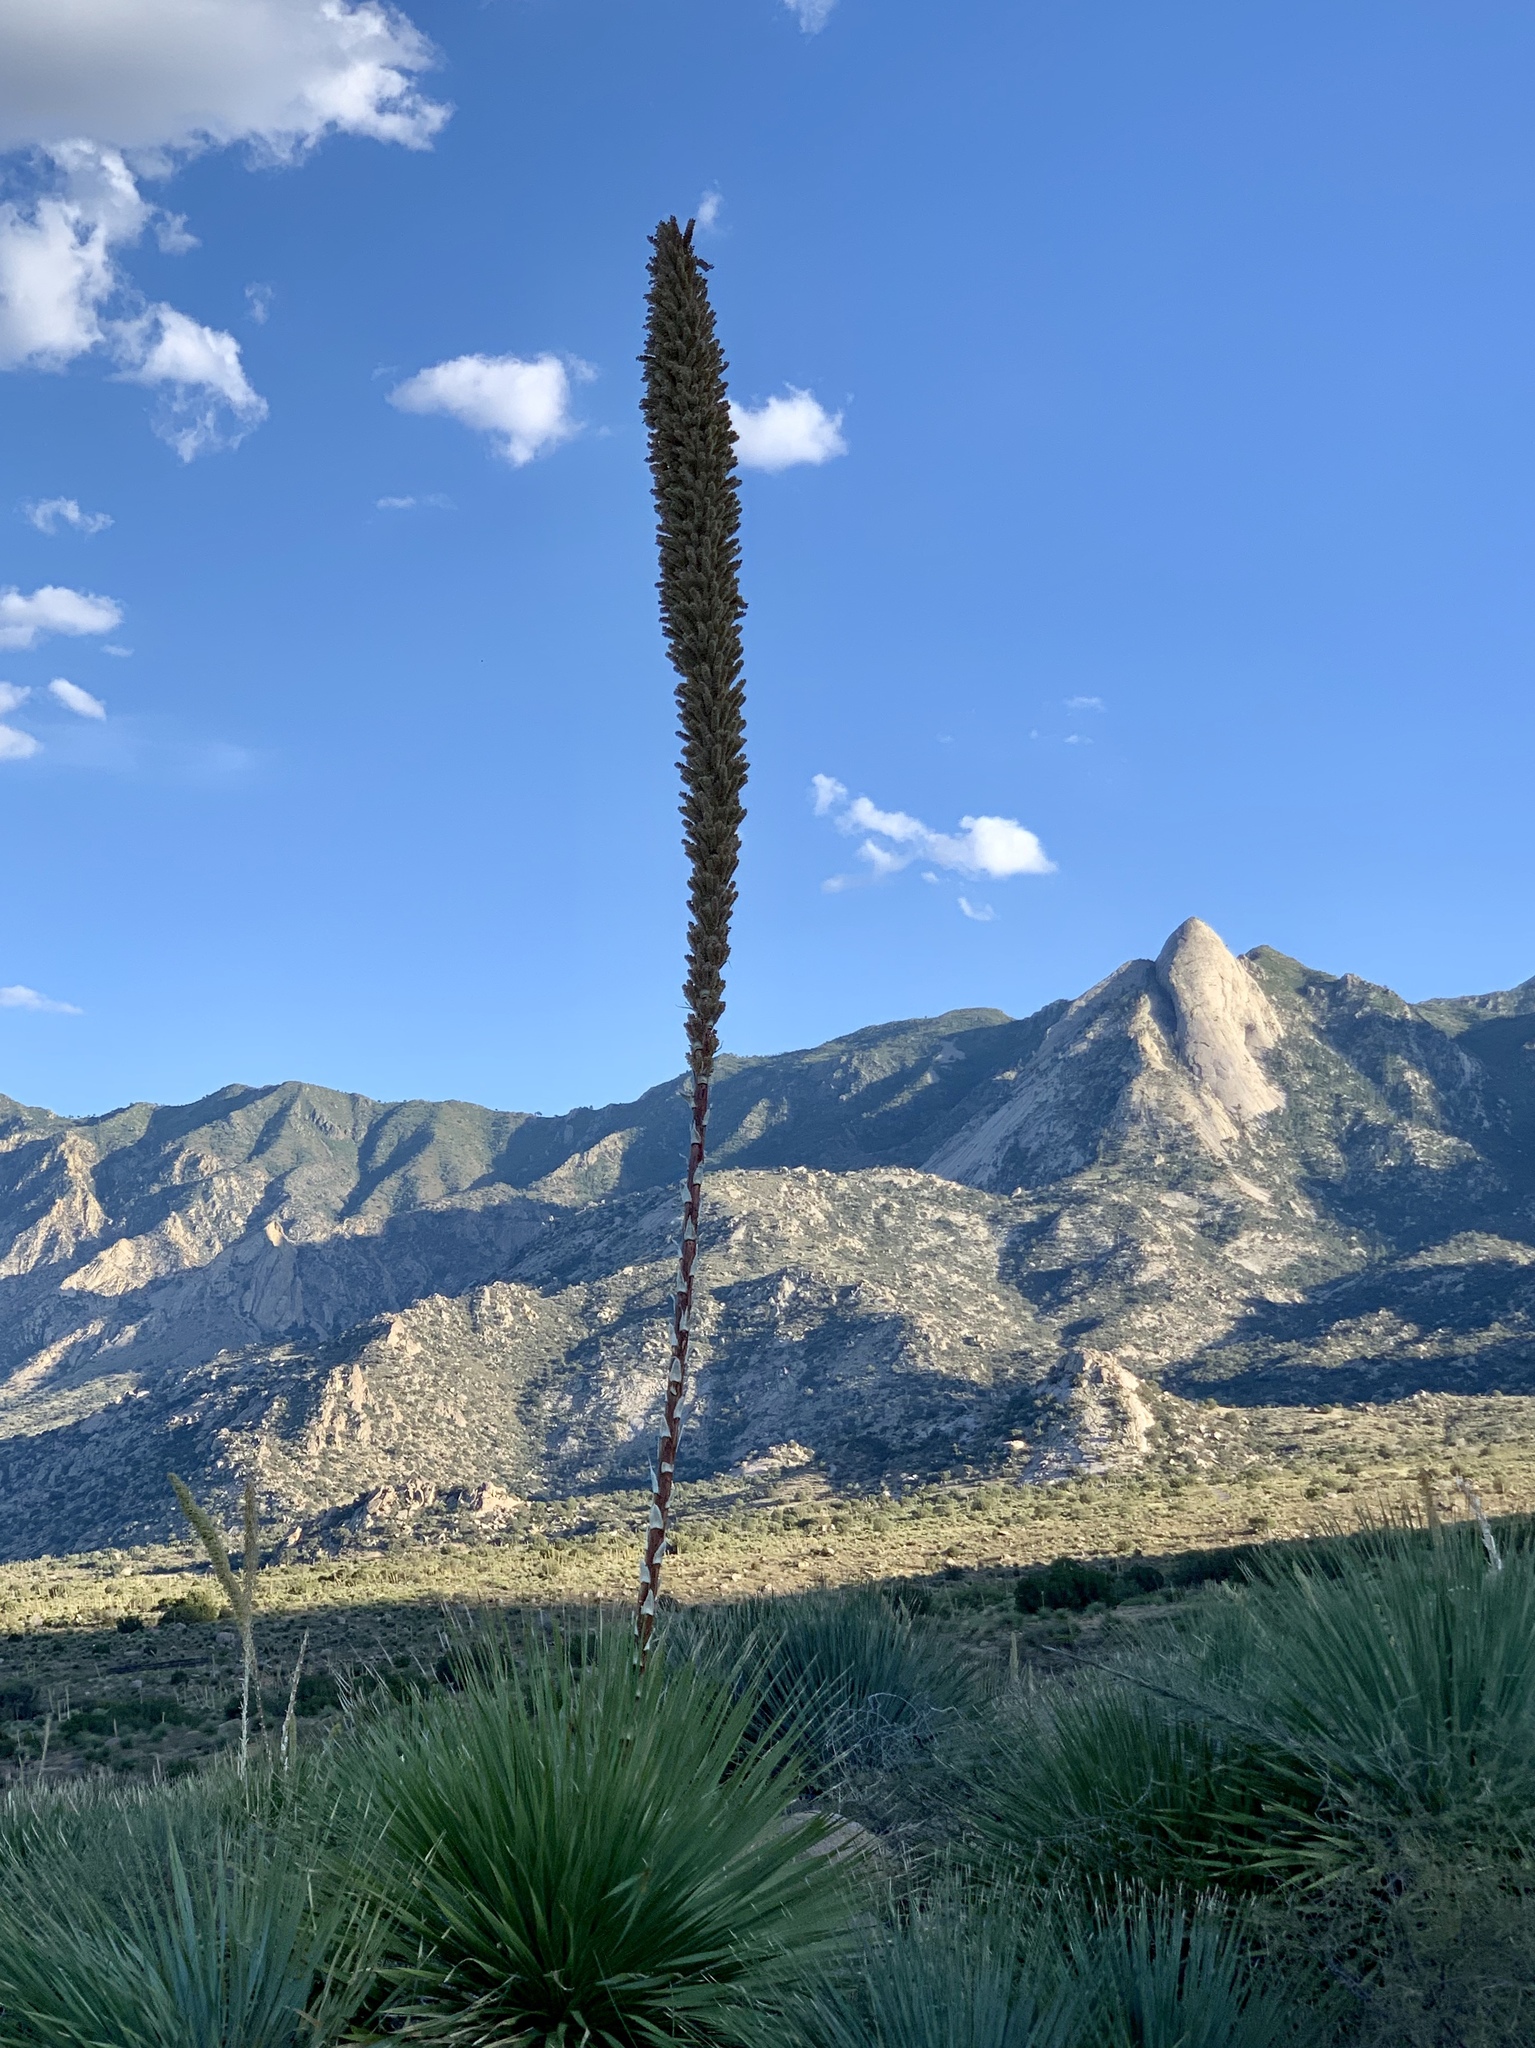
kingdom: Plantae
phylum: Tracheophyta
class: Liliopsida
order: Asparagales
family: Asparagaceae
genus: Dasylirion
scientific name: Dasylirion wheeleri
